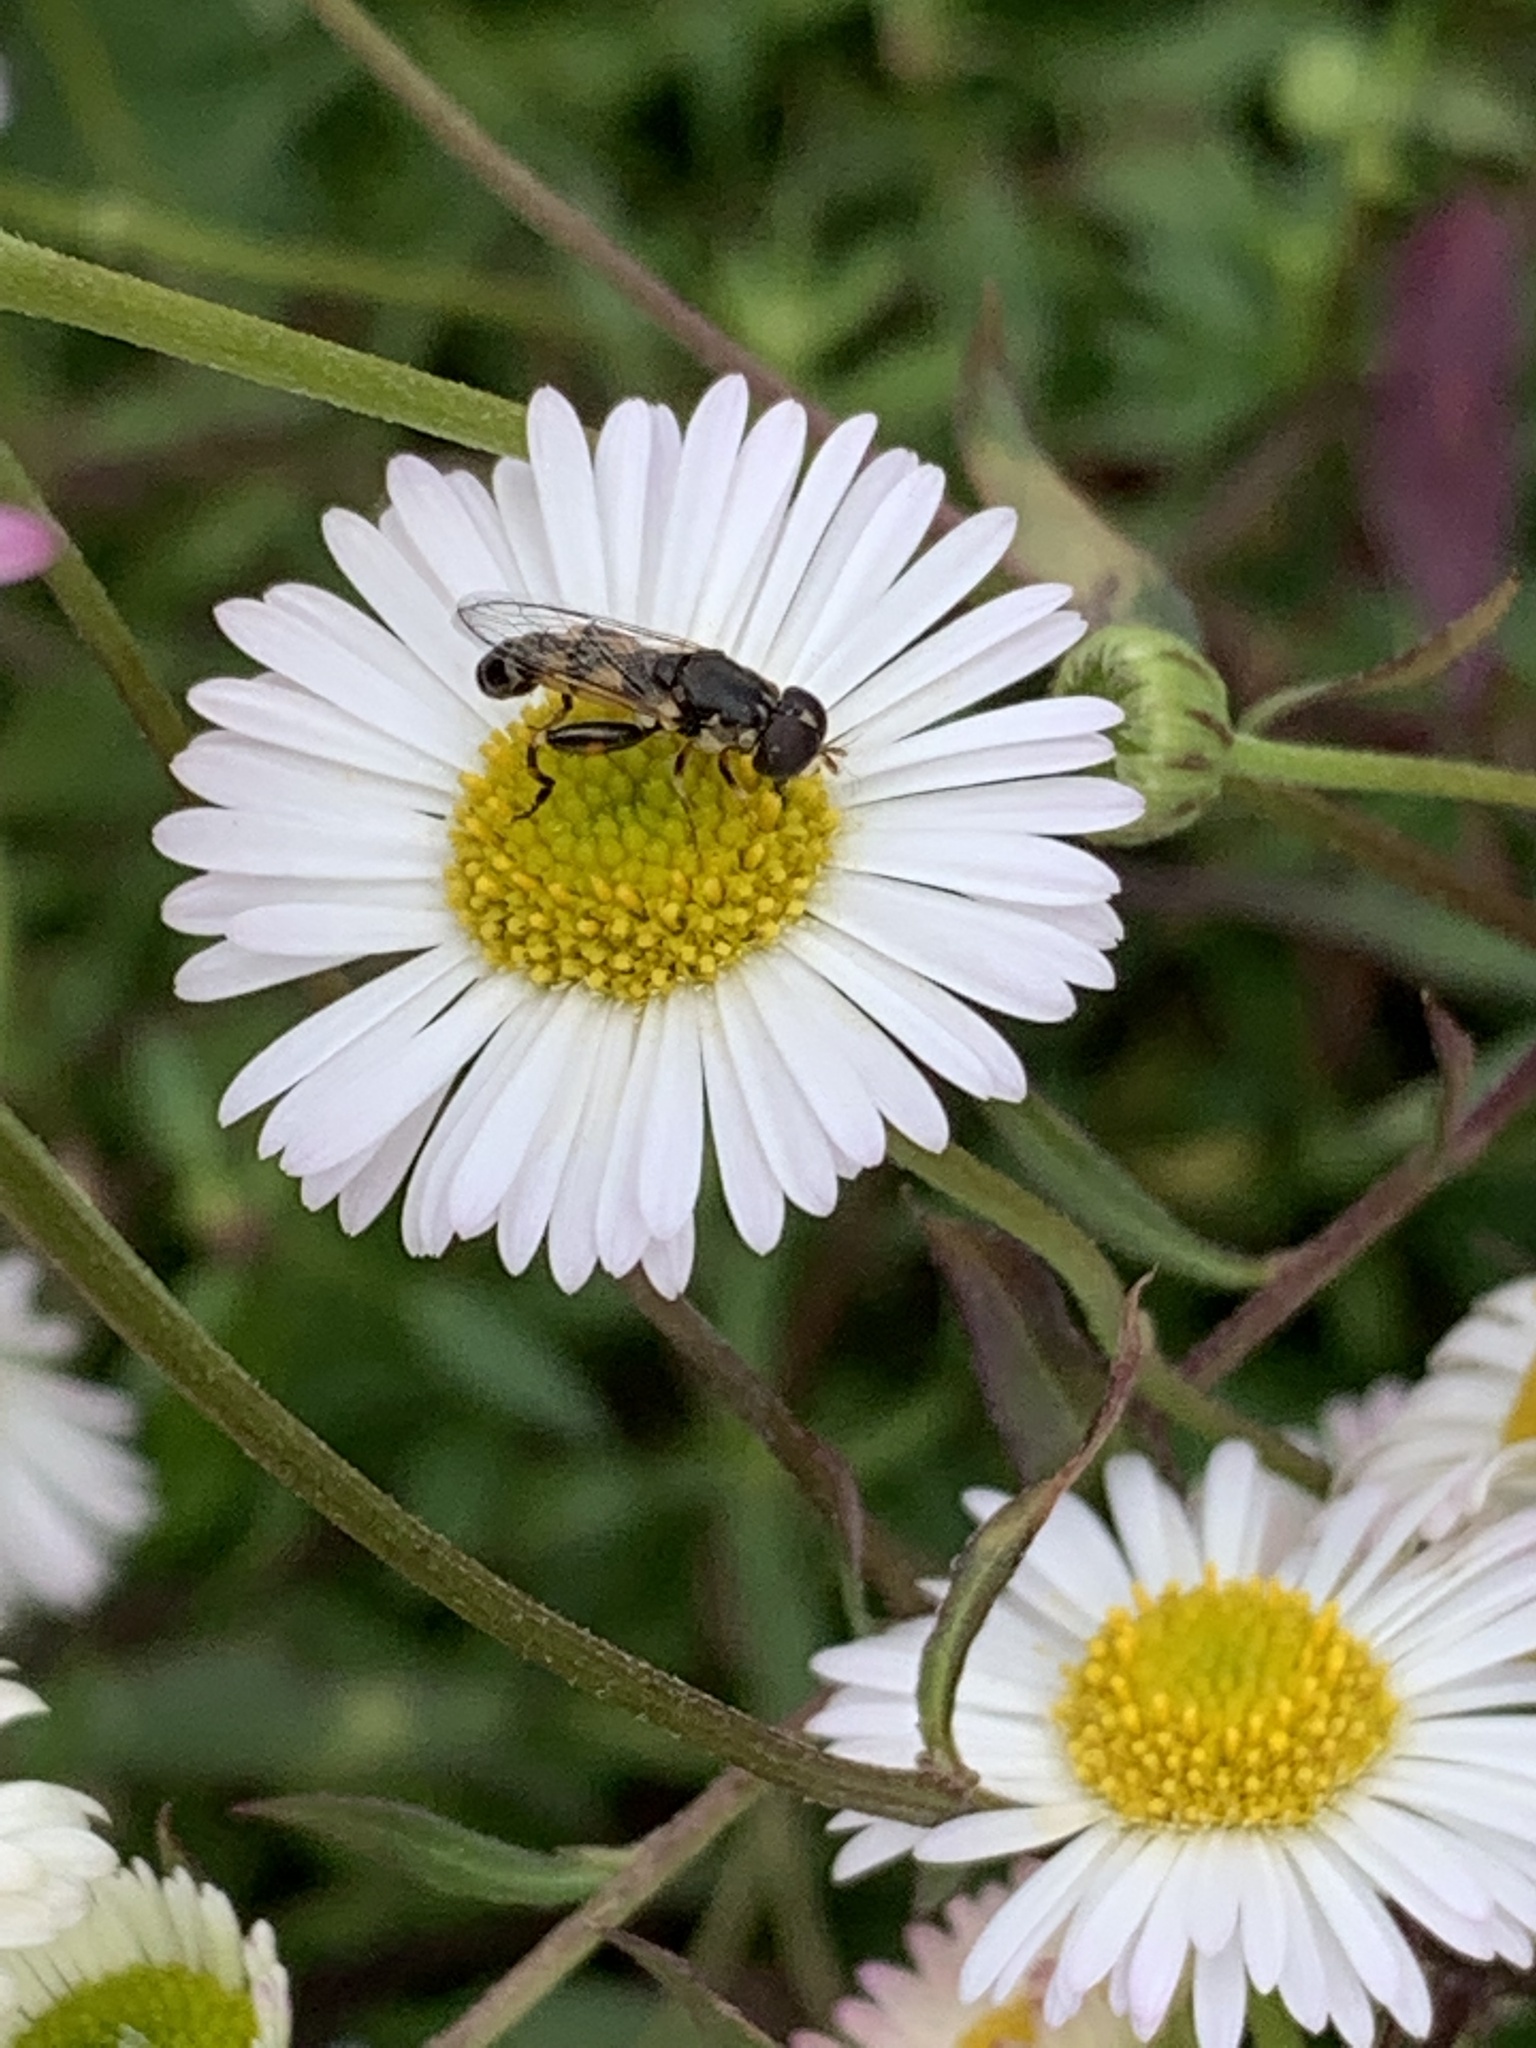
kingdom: Animalia
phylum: Arthropoda
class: Insecta
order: Diptera
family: Syrphidae
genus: Syritta
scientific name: Syritta pipiens
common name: Hover fly
